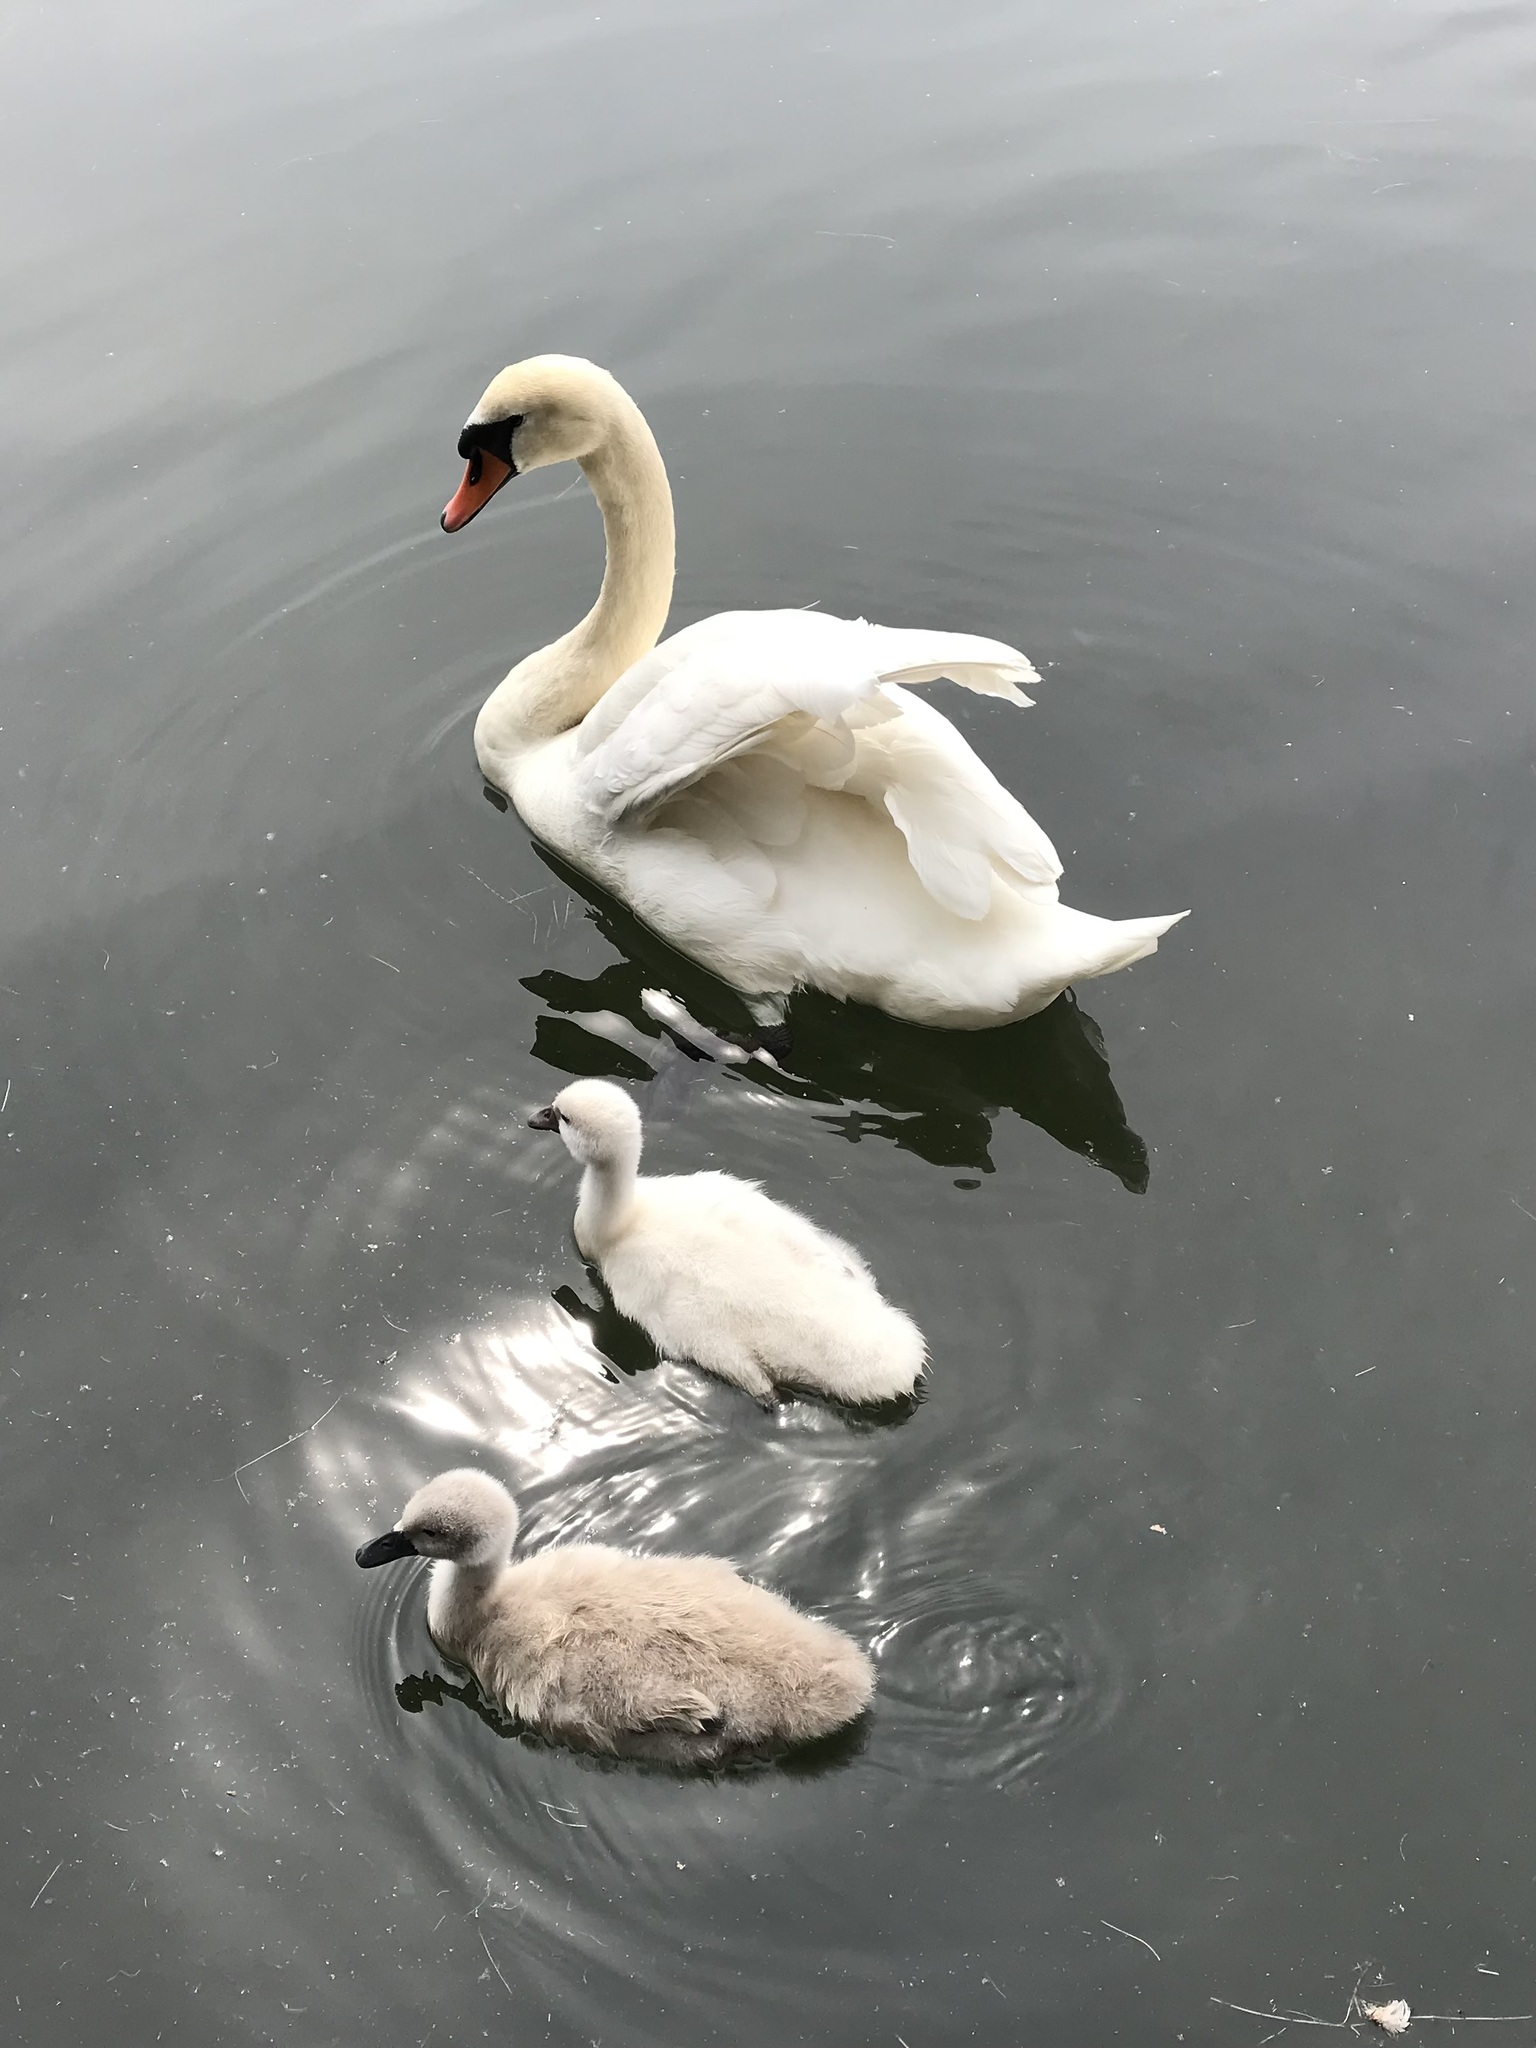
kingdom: Animalia
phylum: Chordata
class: Aves
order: Anseriformes
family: Anatidae
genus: Cygnus
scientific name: Cygnus olor
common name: Mute swan
